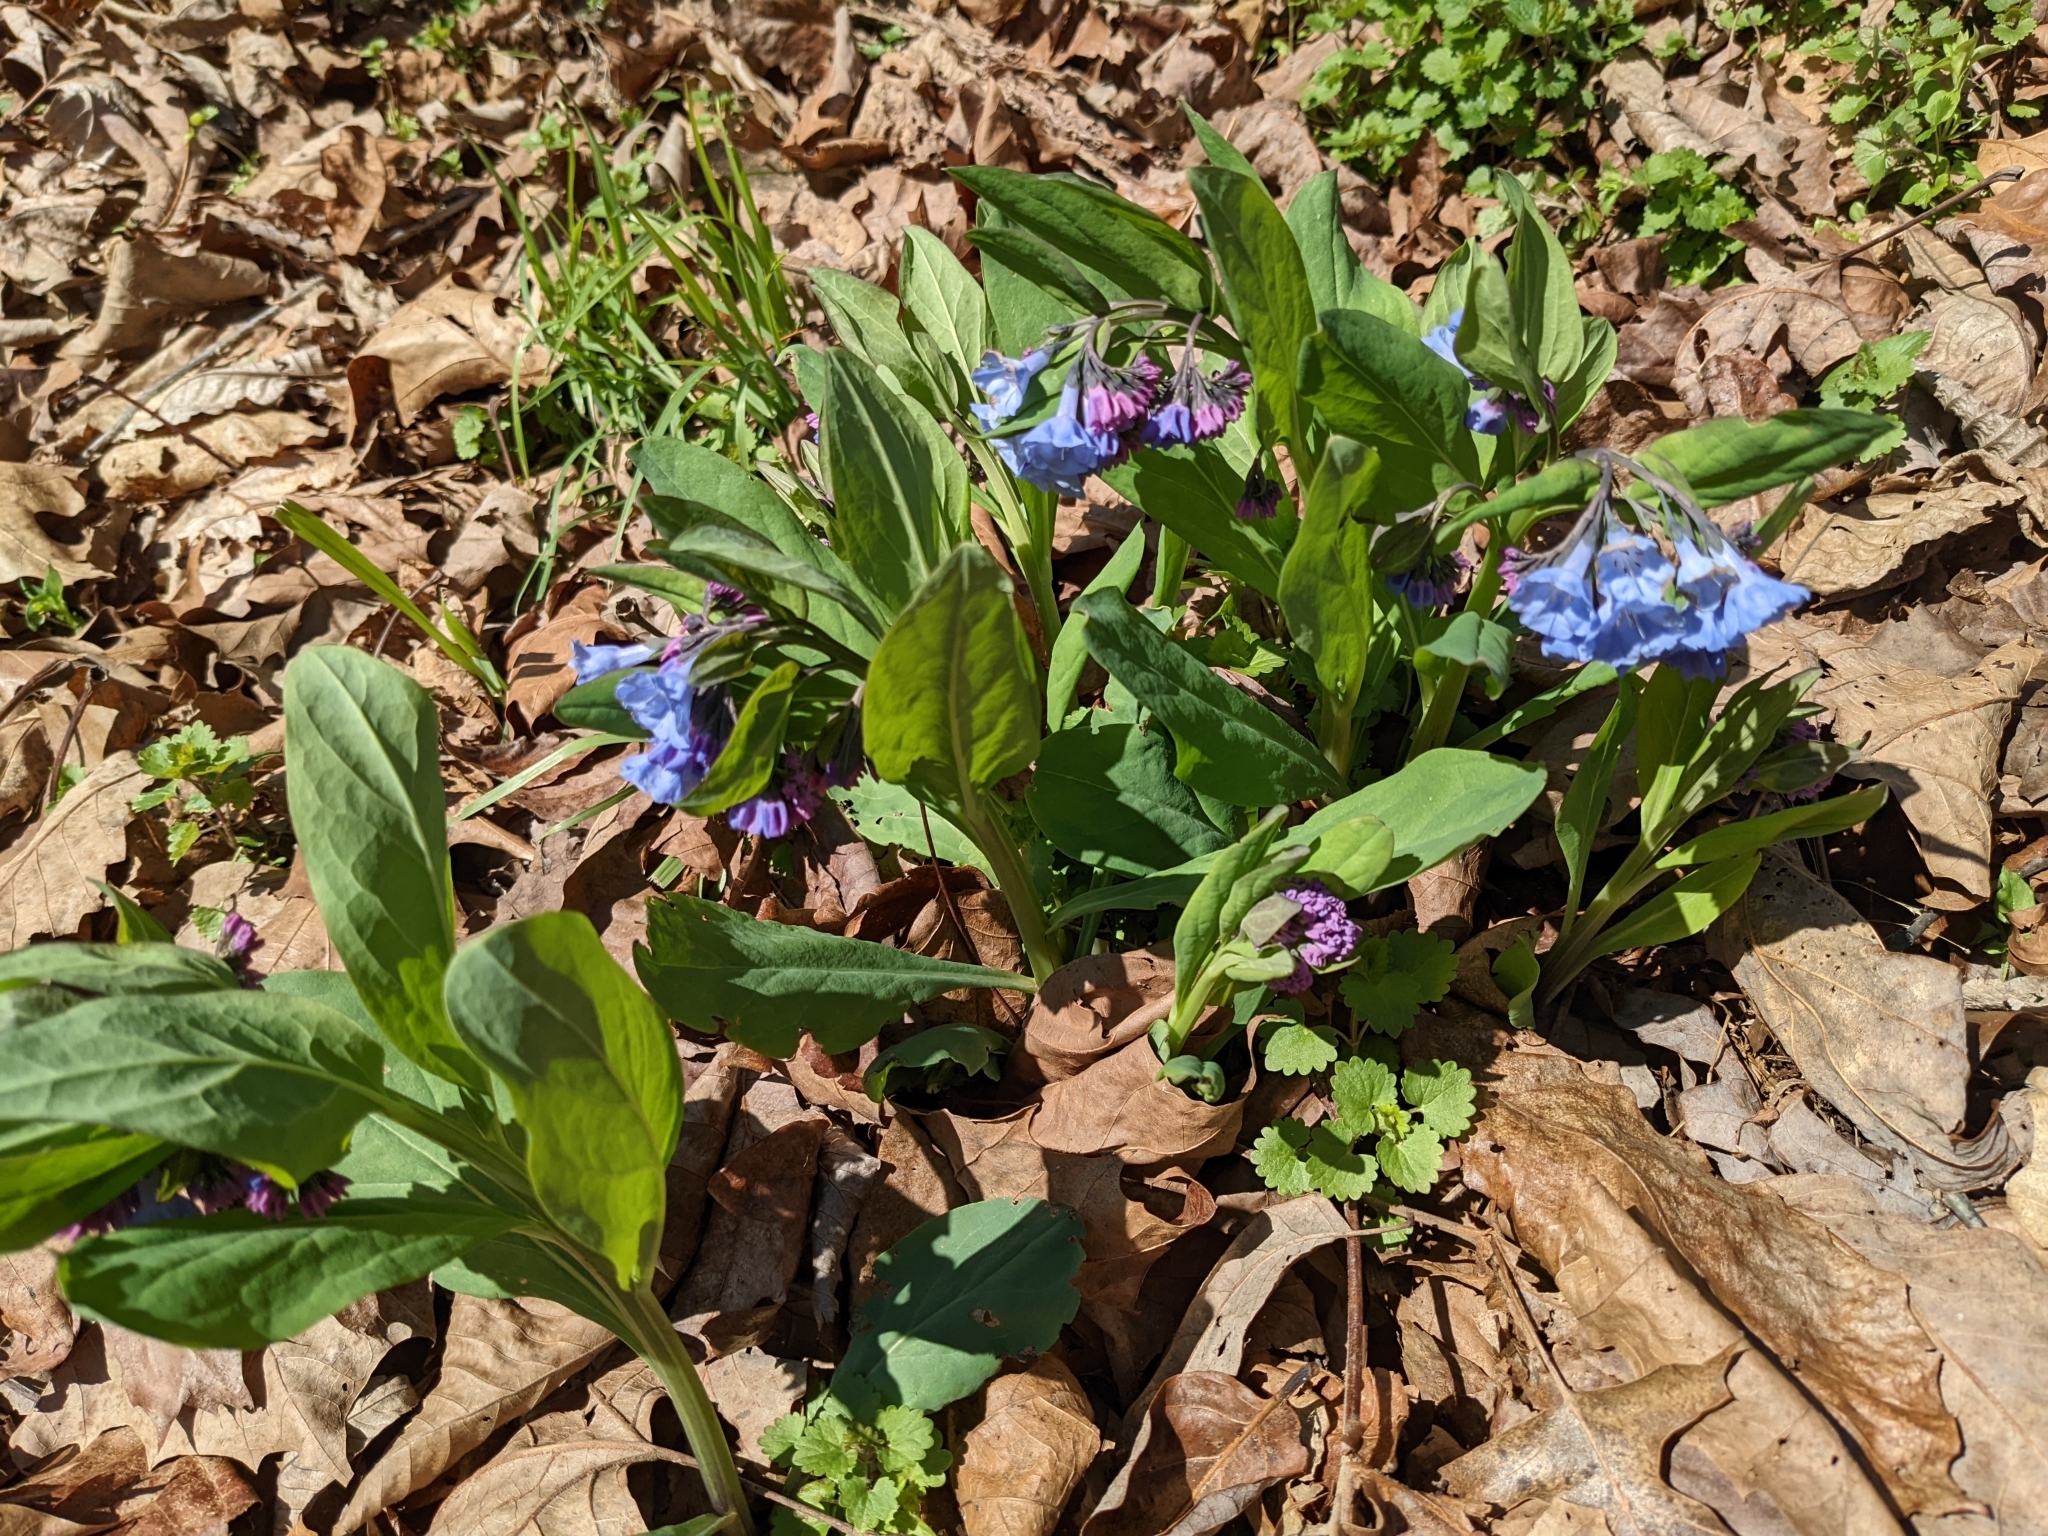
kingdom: Plantae
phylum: Tracheophyta
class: Magnoliopsida
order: Boraginales
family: Boraginaceae
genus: Mertensia
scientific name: Mertensia virginica
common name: Virginia bluebells
